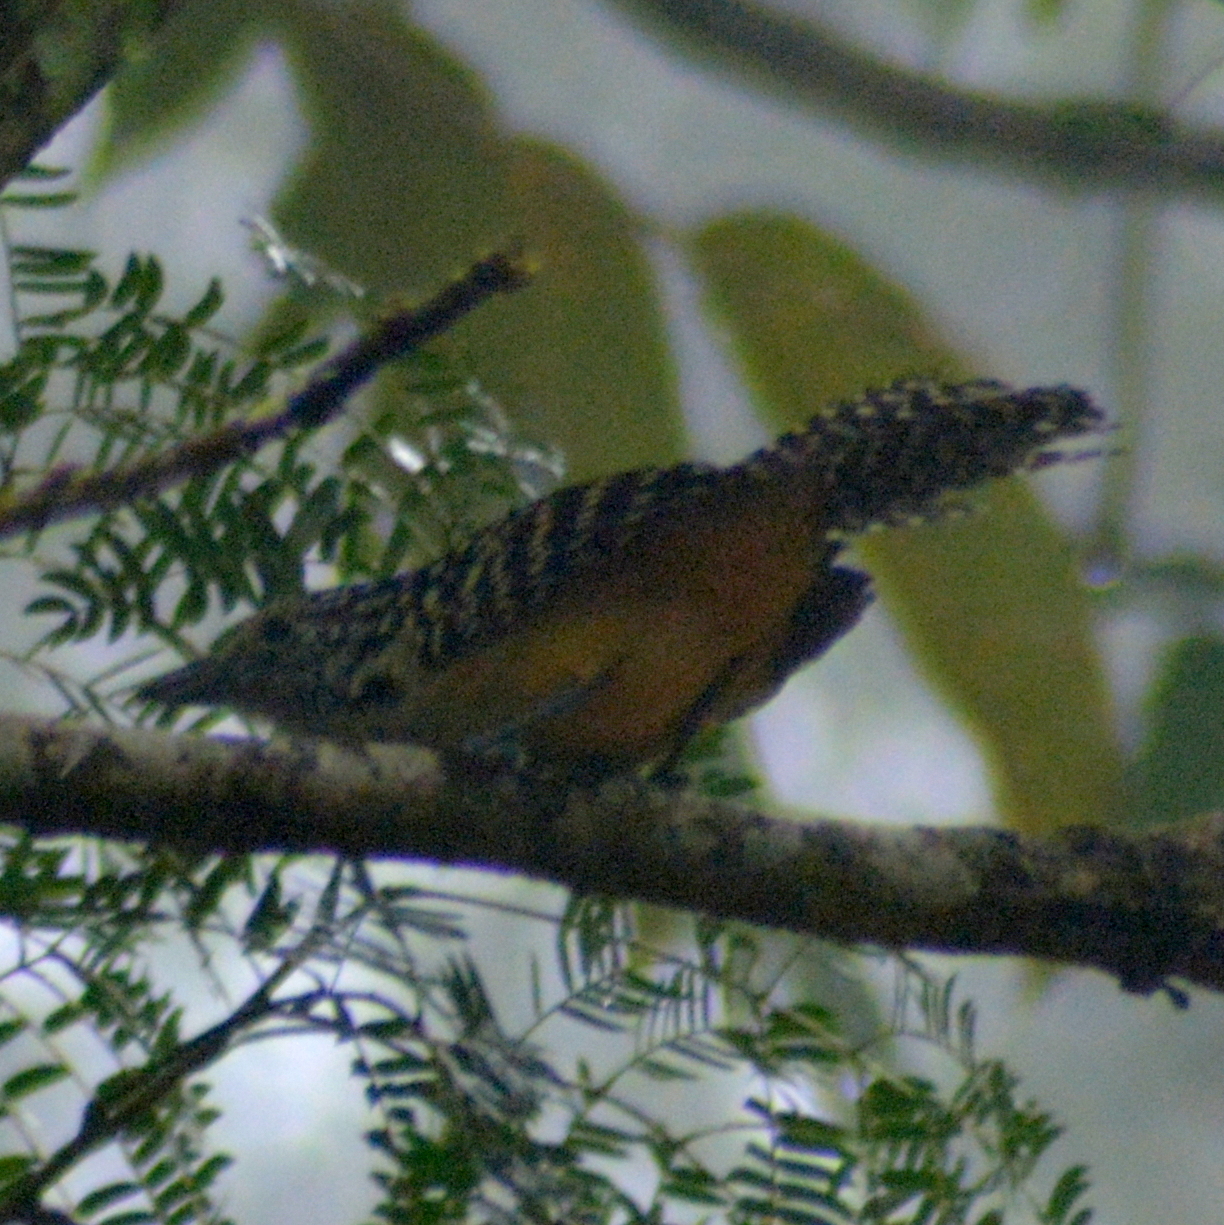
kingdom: Animalia
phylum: Chordata
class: Aves
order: Passeriformes
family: Thamnophilidae
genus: Hypoedaleus
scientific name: Hypoedaleus guttatus
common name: Spot-backed antshrike
